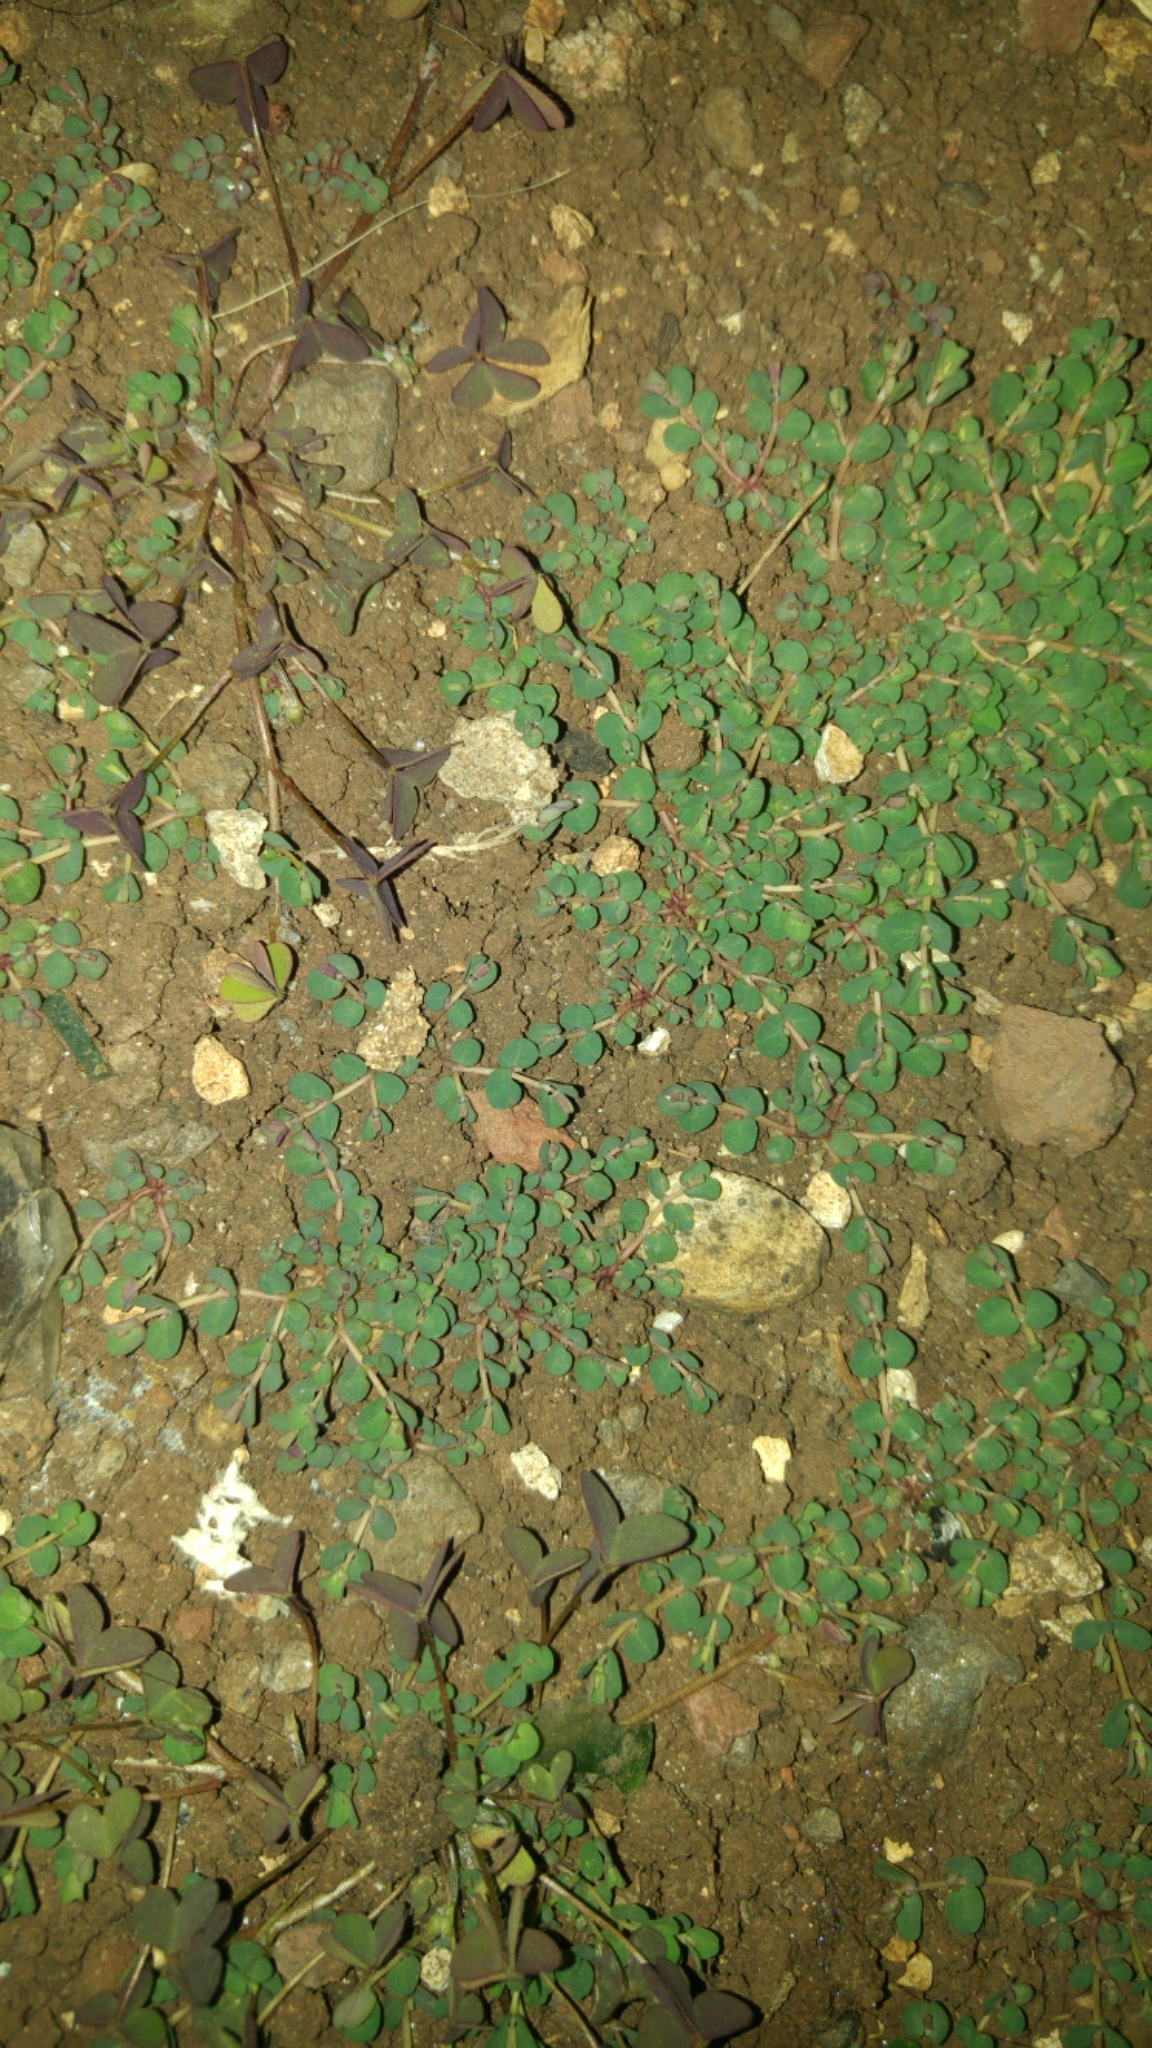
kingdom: Plantae
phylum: Tracheophyta
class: Magnoliopsida
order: Malpighiales
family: Euphorbiaceae
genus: Euphorbia
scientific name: Euphorbia serpens
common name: Matted sandmat
